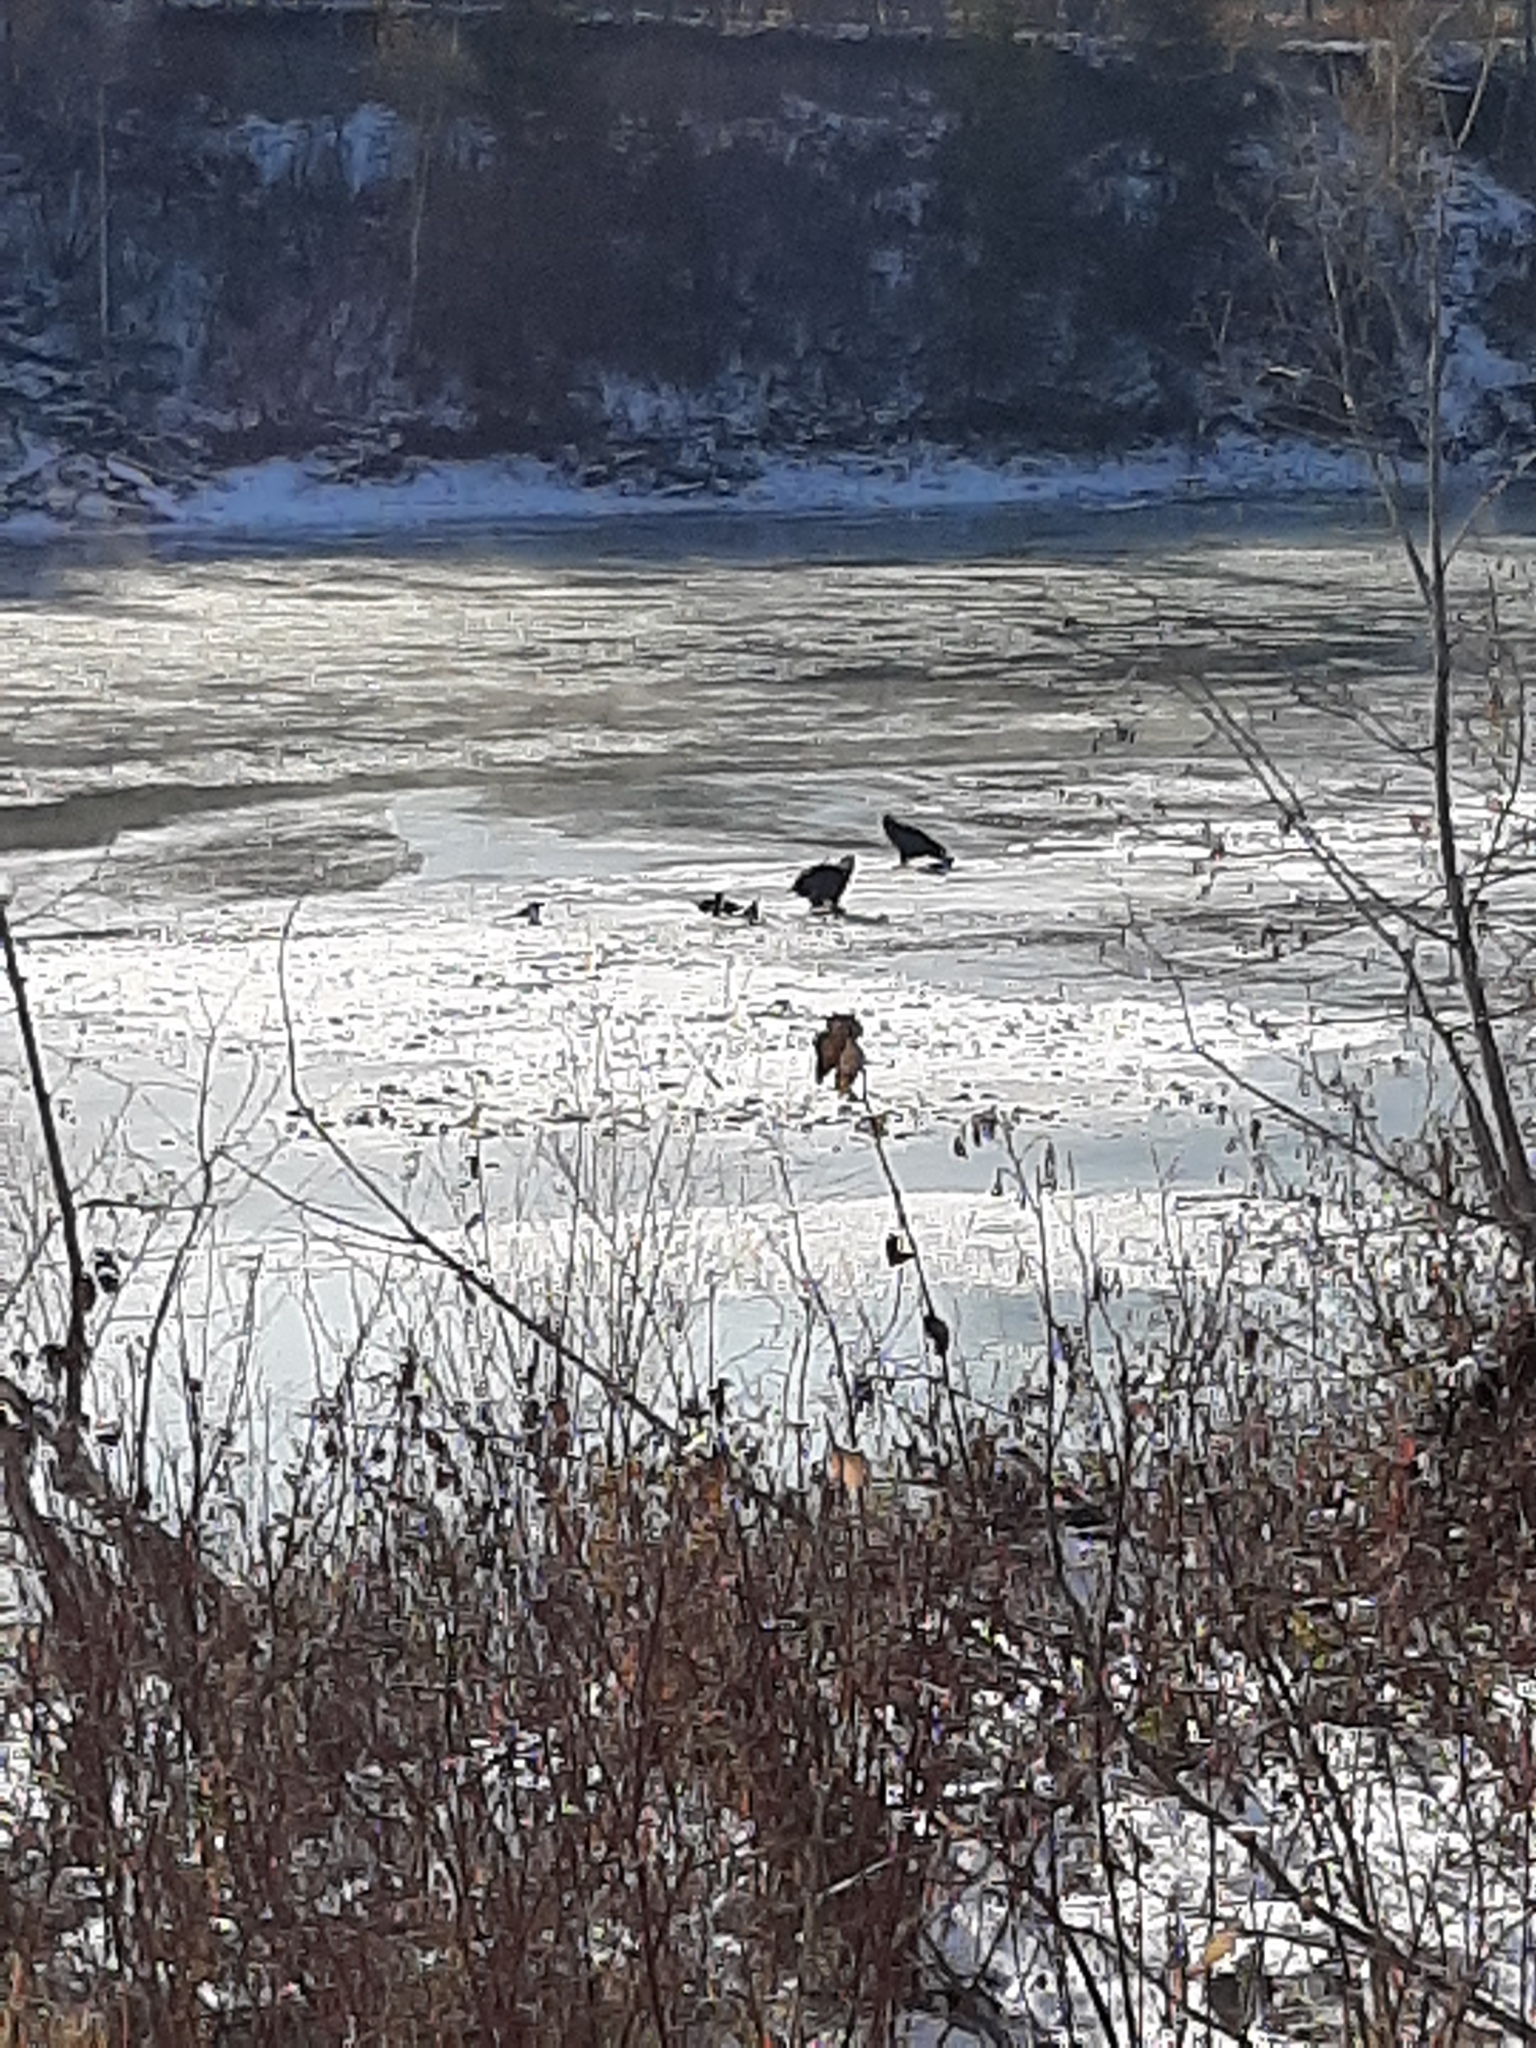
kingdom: Animalia
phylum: Chordata
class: Aves
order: Accipitriformes
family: Accipitridae
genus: Haliaeetus
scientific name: Haliaeetus leucocephalus
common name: Bald eagle
